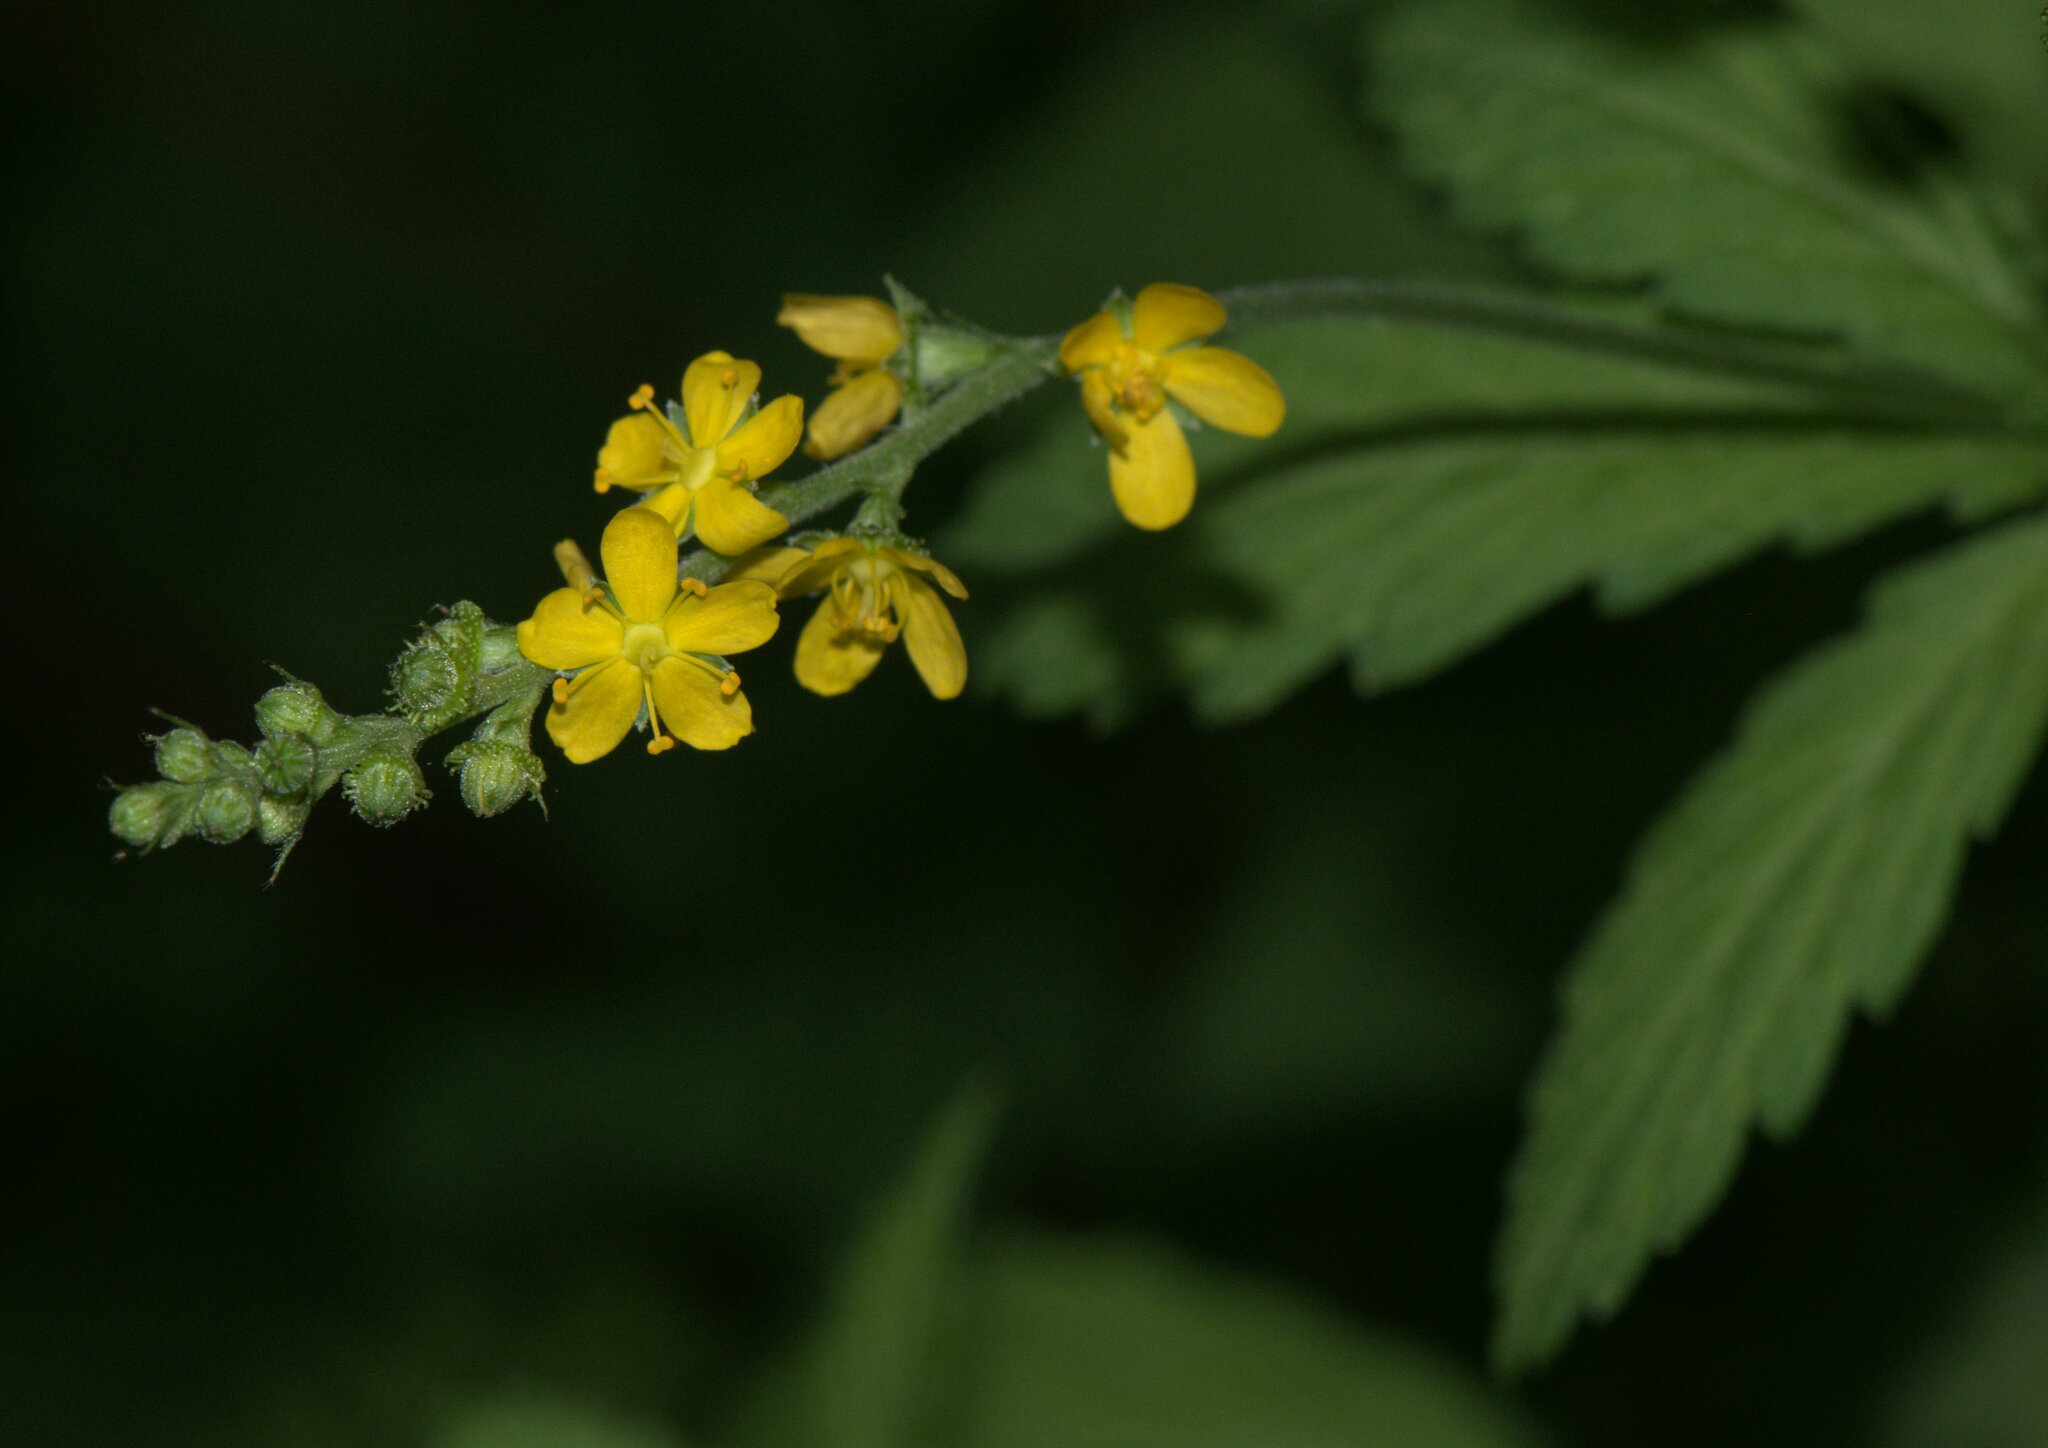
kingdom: Plantae
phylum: Tracheophyta
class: Magnoliopsida
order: Rosales
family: Rosaceae
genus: Agrimonia
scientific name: Agrimonia pilosa
